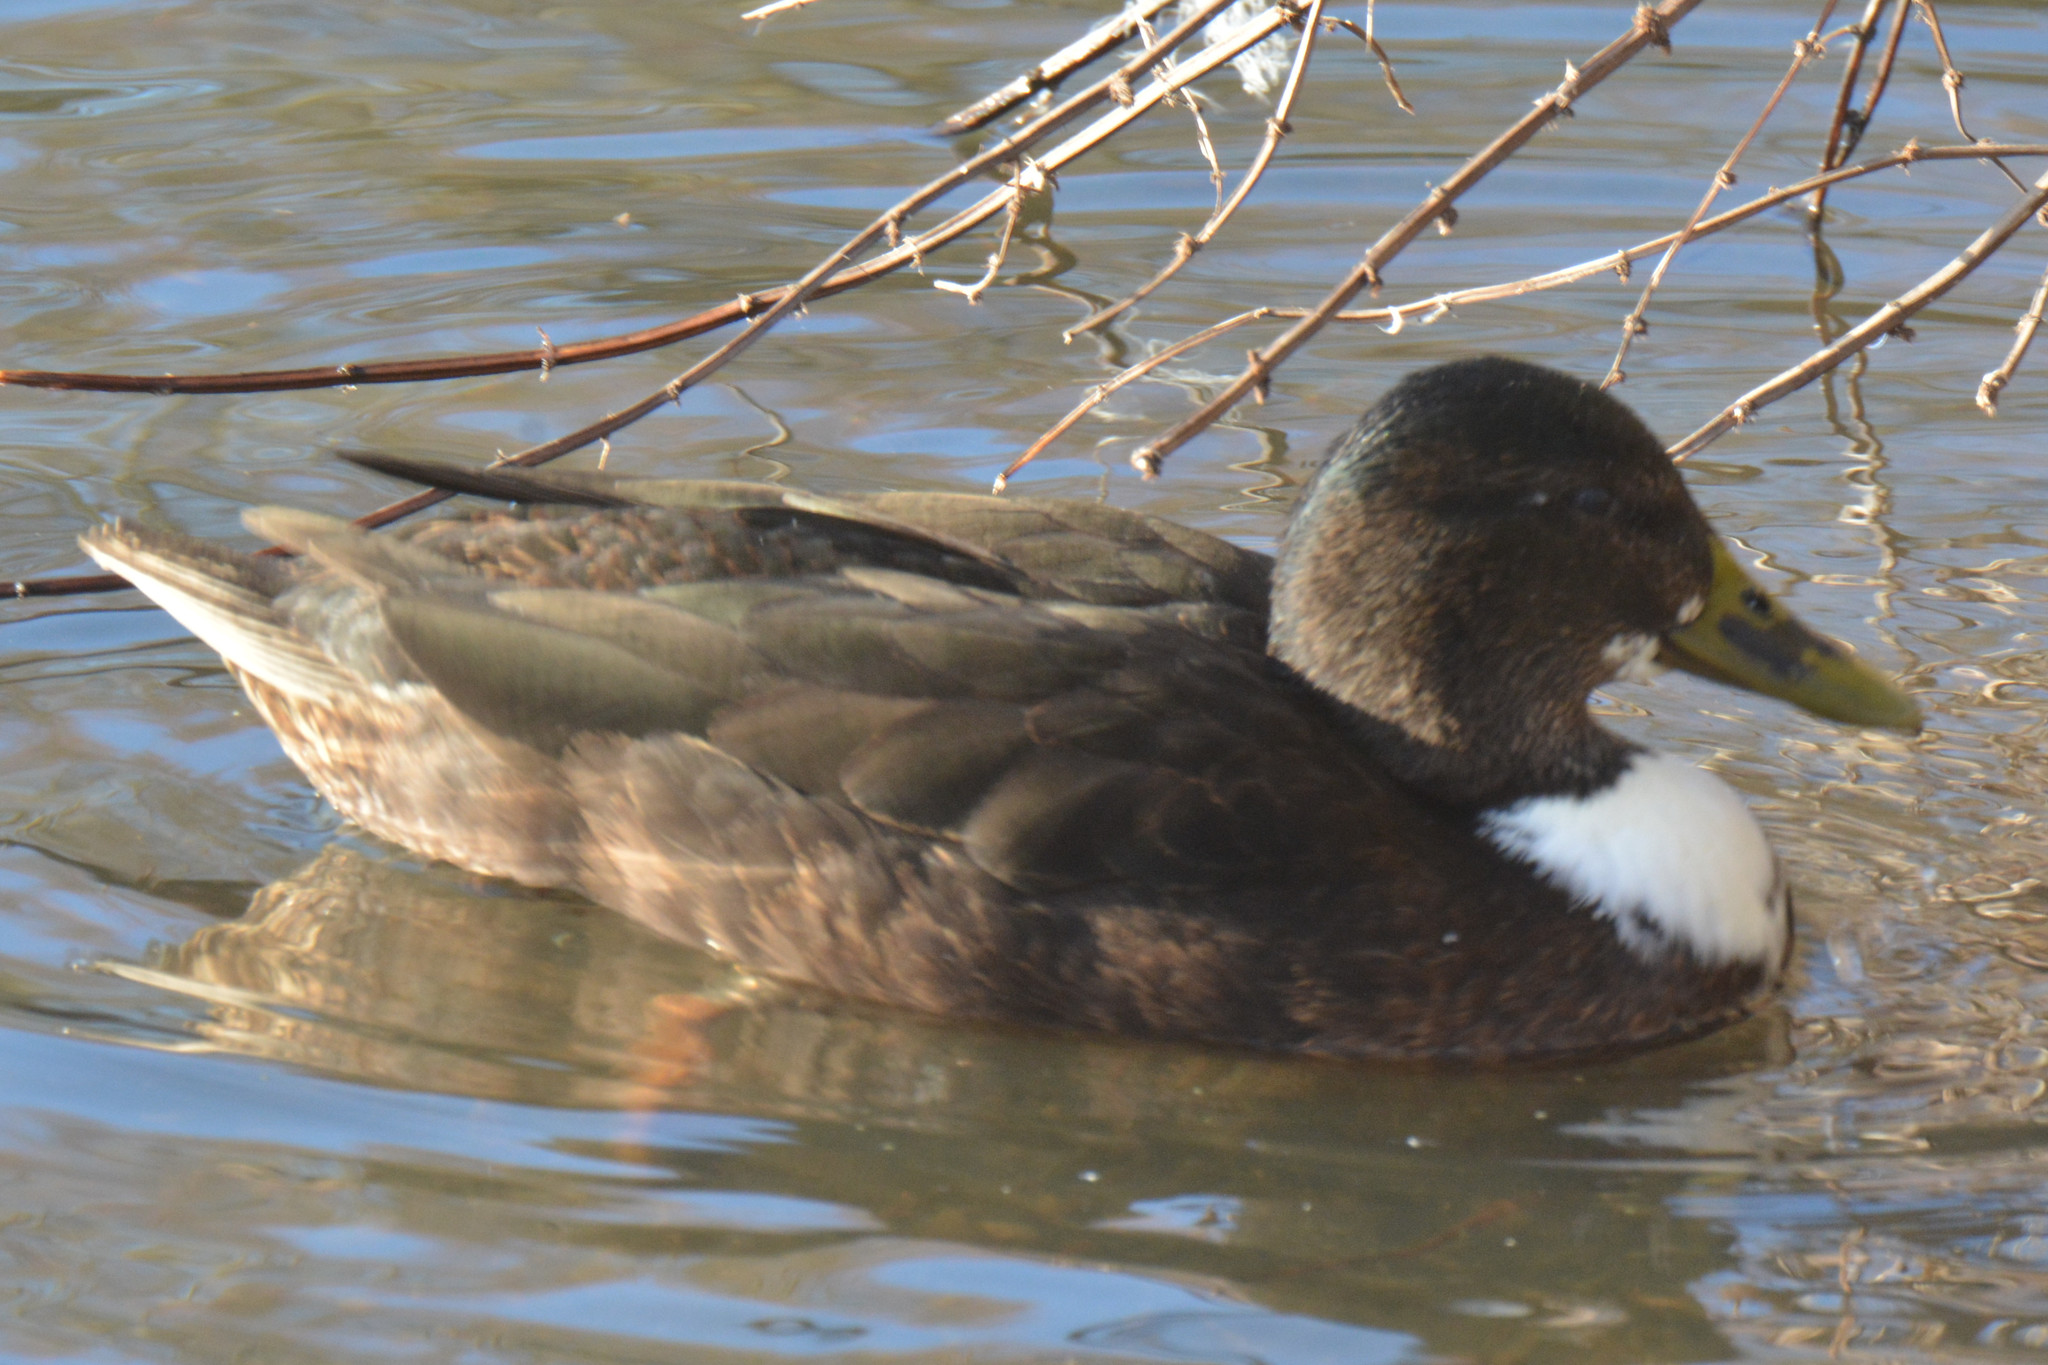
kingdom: Animalia
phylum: Chordata
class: Aves
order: Anseriformes
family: Anatidae
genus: Anas
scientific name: Anas platyrhynchos
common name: Mallard
